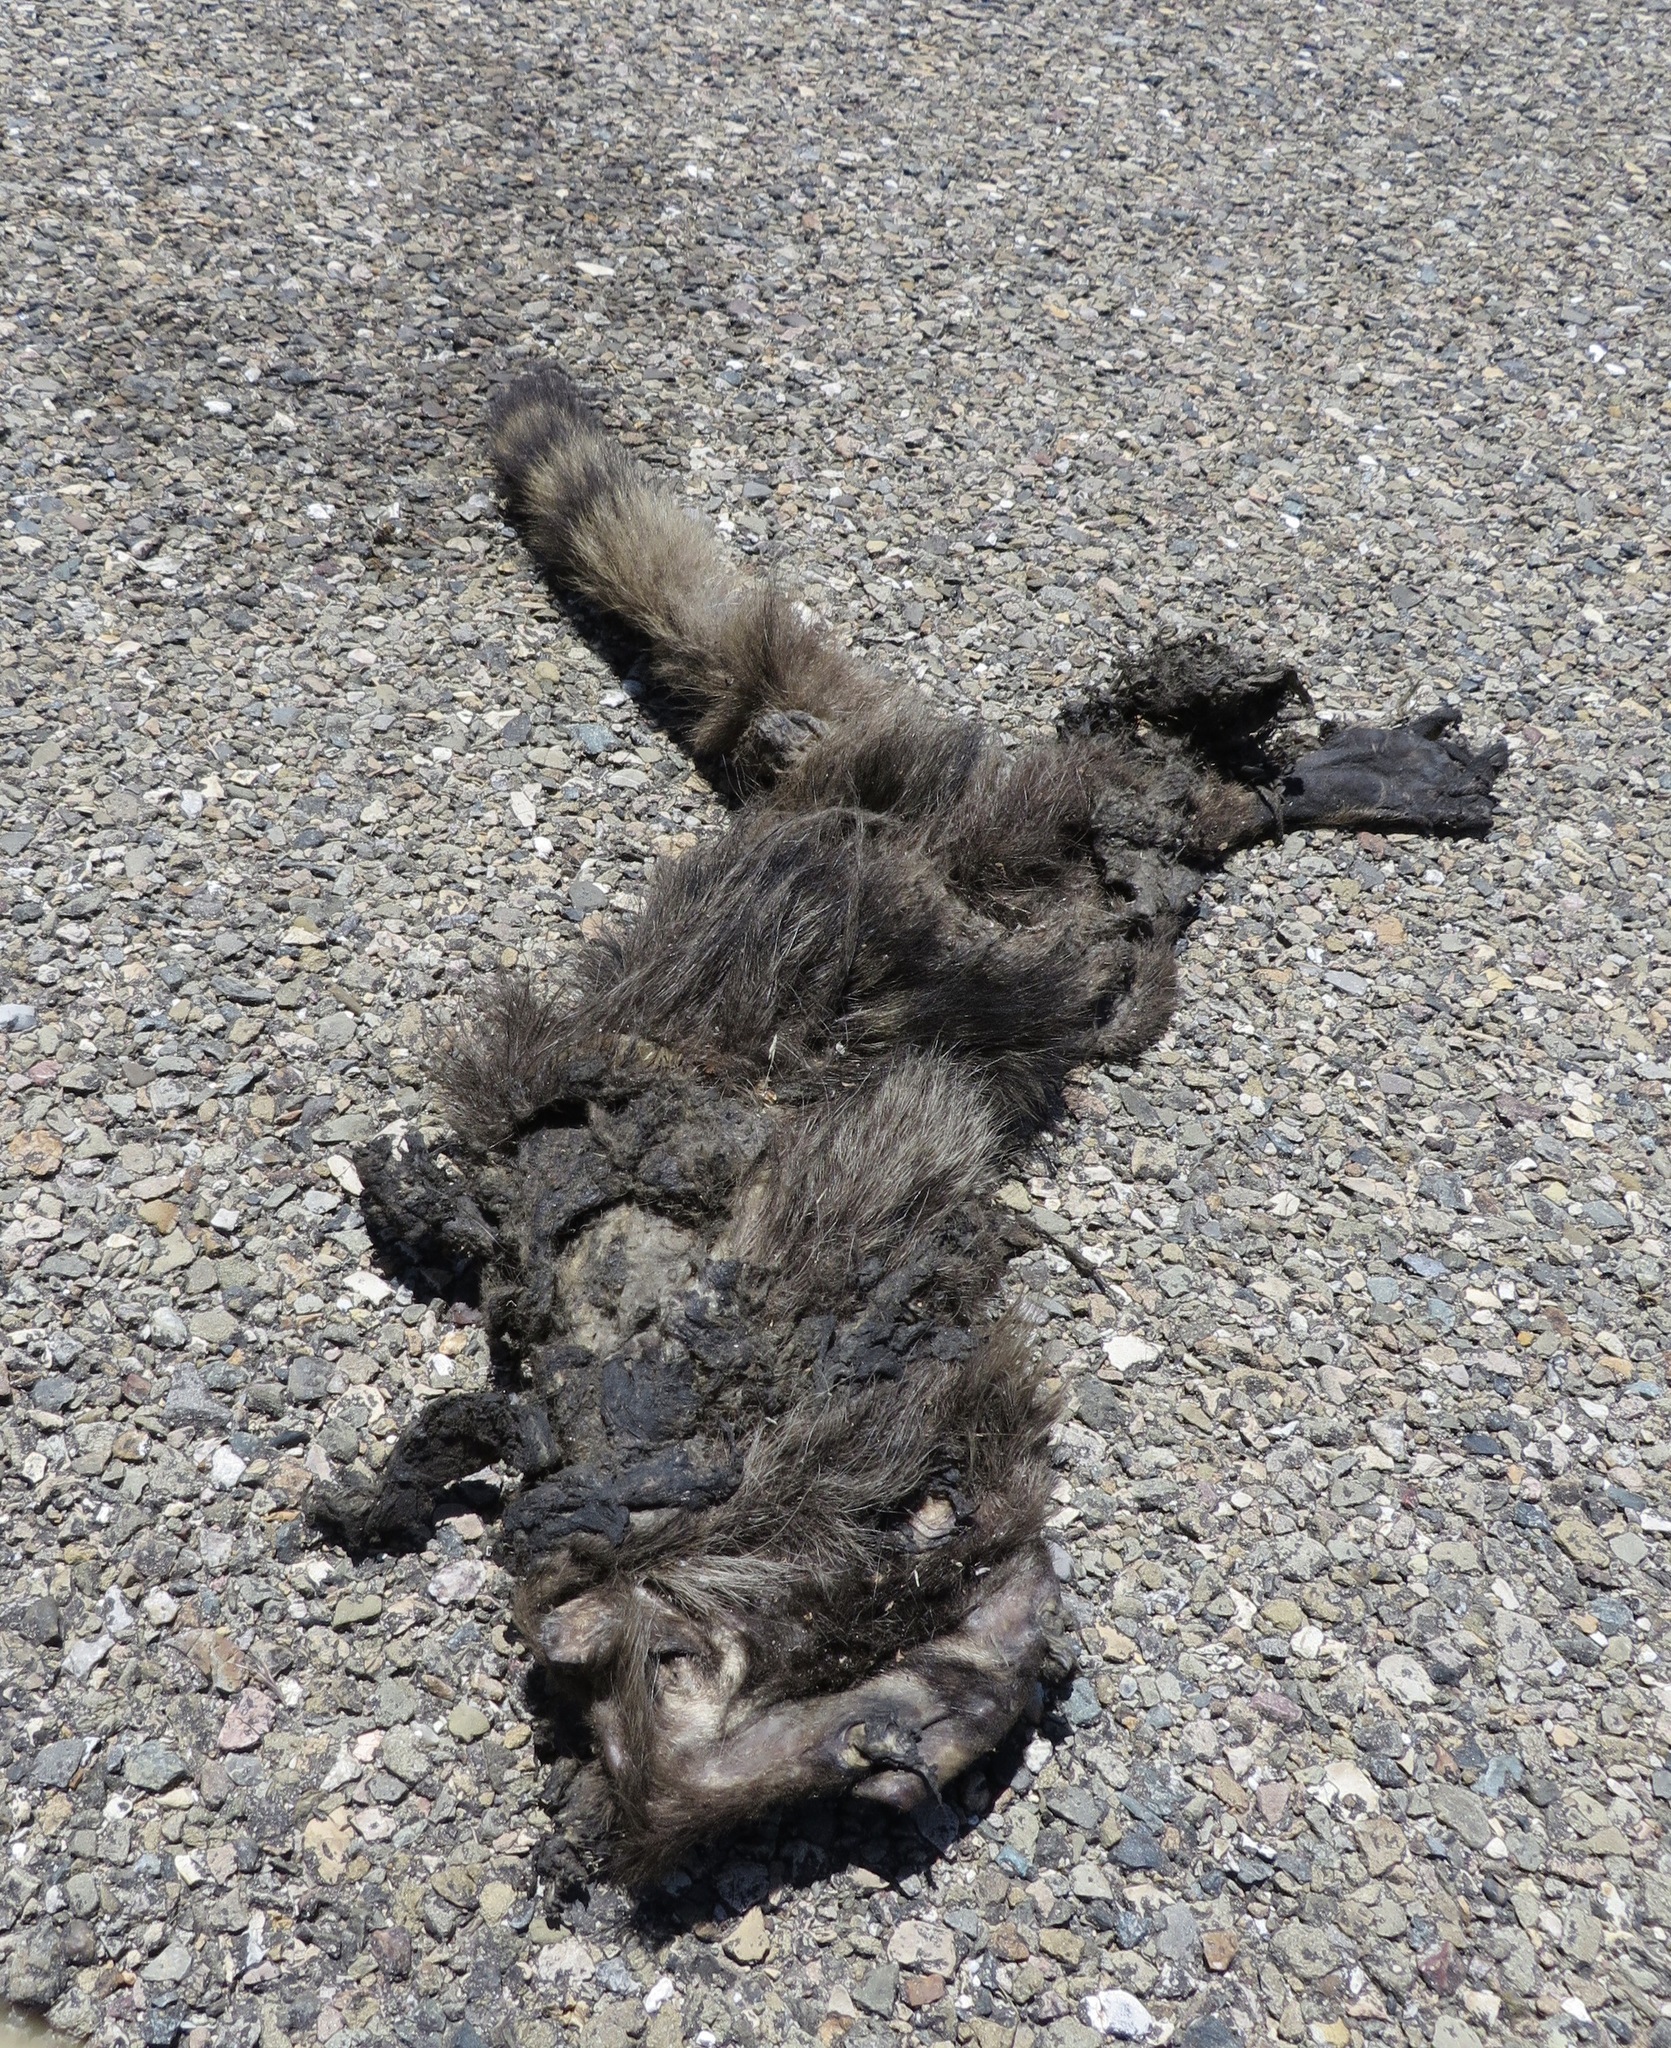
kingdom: Animalia
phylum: Chordata
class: Mammalia
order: Carnivora
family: Procyonidae
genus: Procyon
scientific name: Procyon lotor
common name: Raccoon
